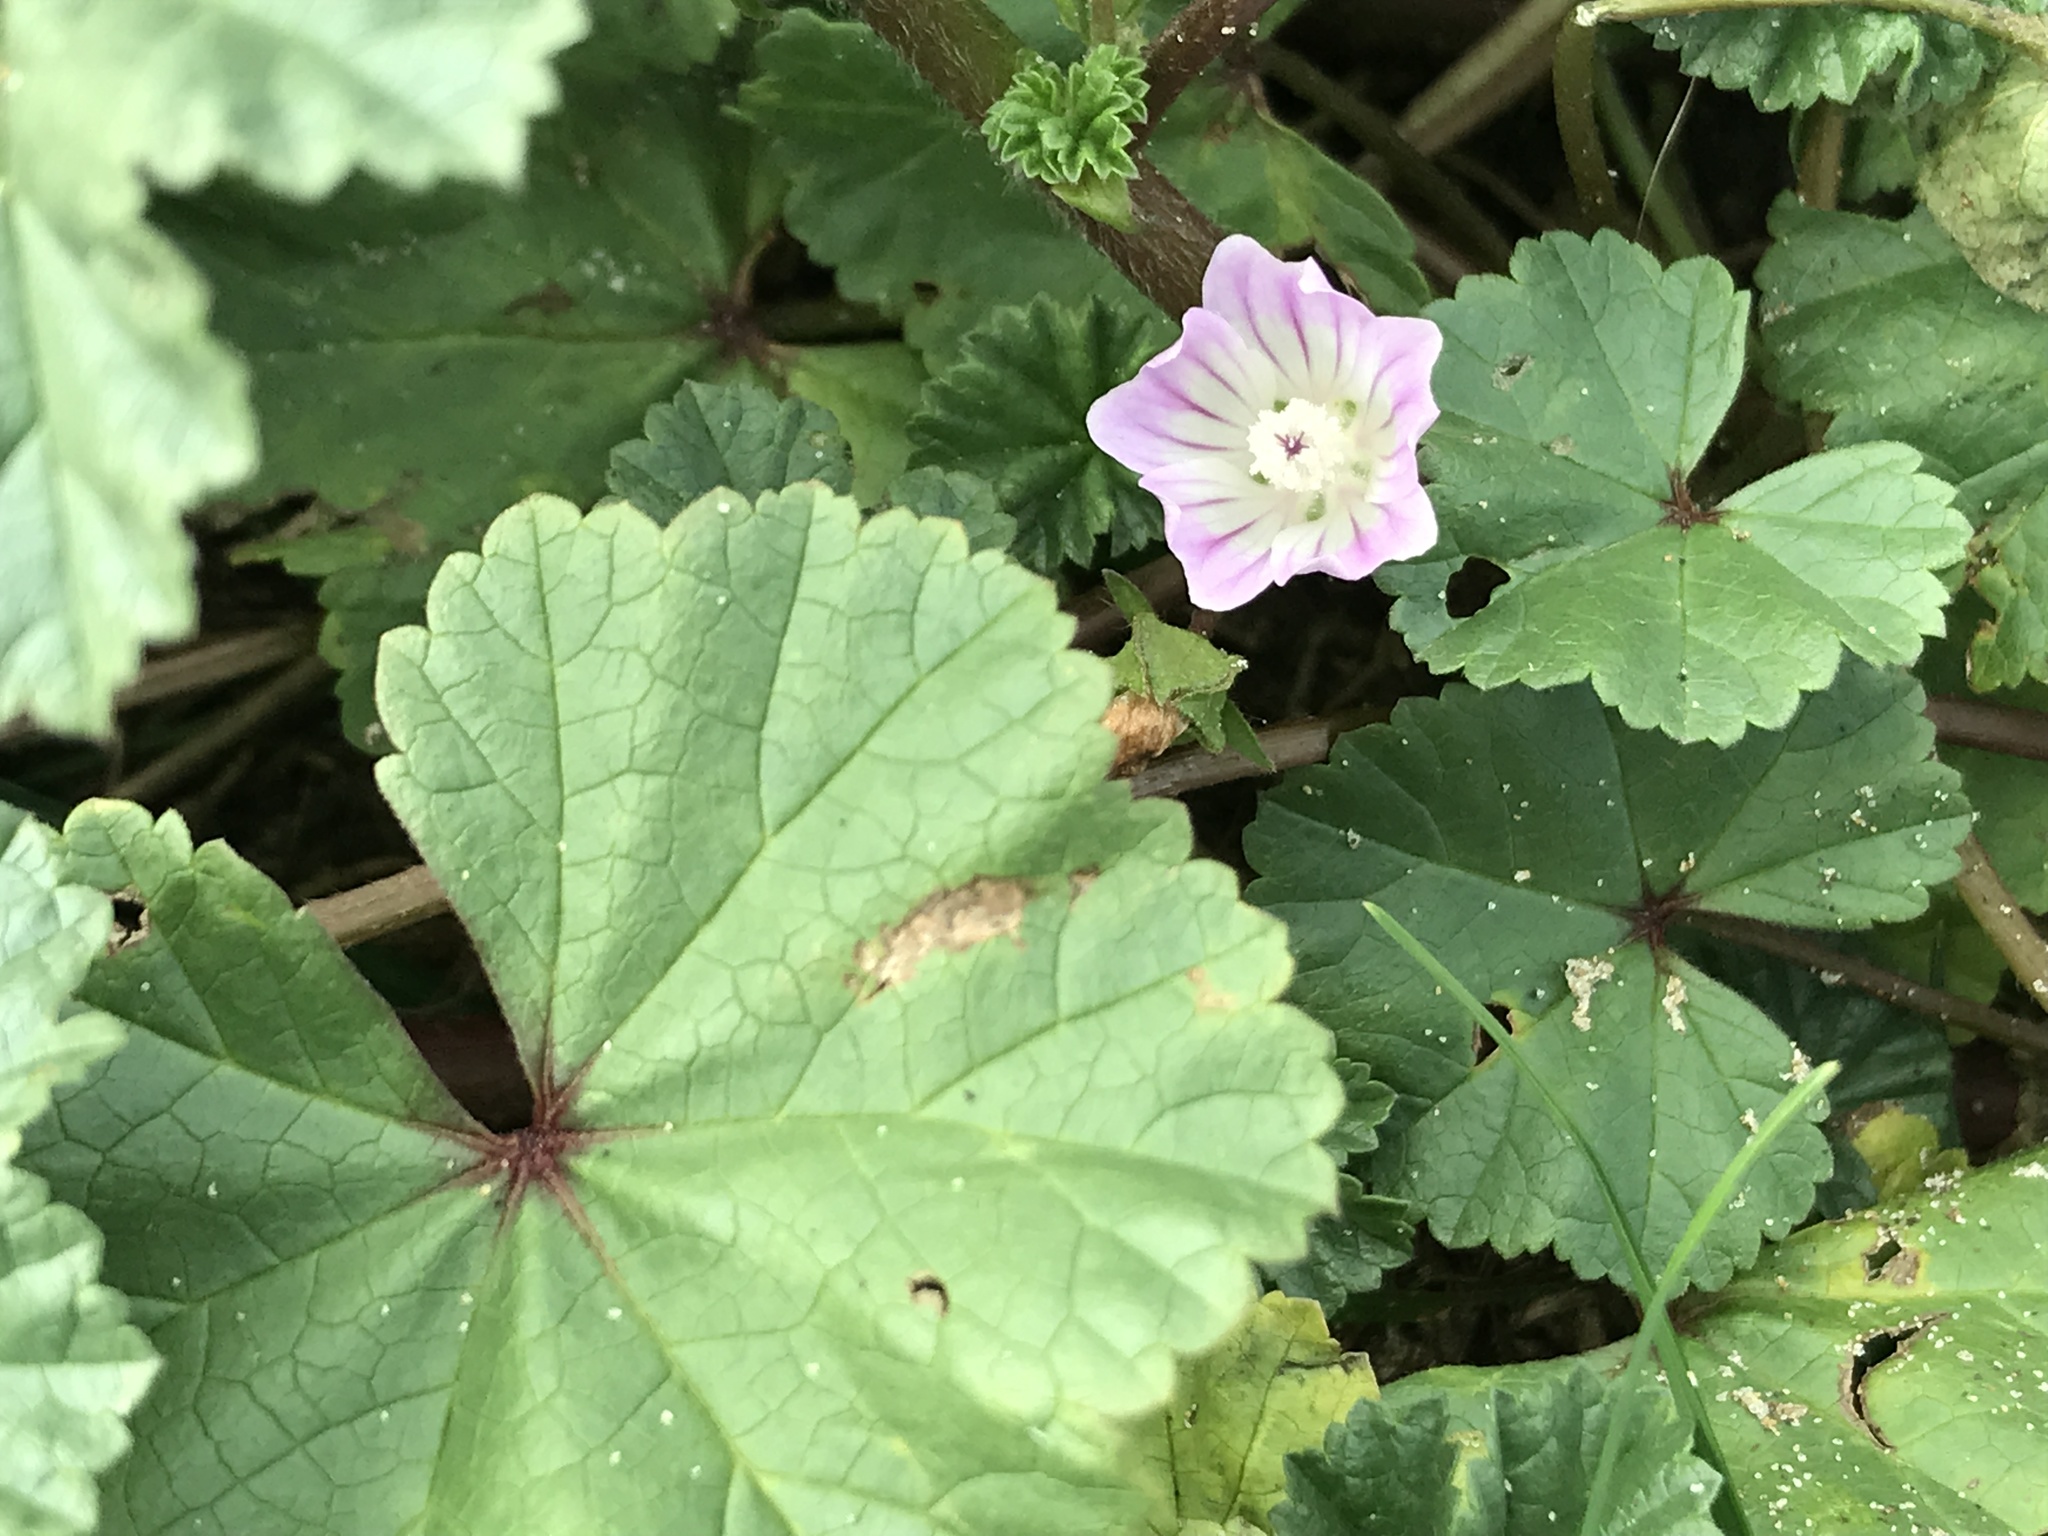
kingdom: Plantae
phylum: Tracheophyta
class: Magnoliopsida
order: Malvales
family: Malvaceae
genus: Malva
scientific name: Malva neglecta
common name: Common mallow
